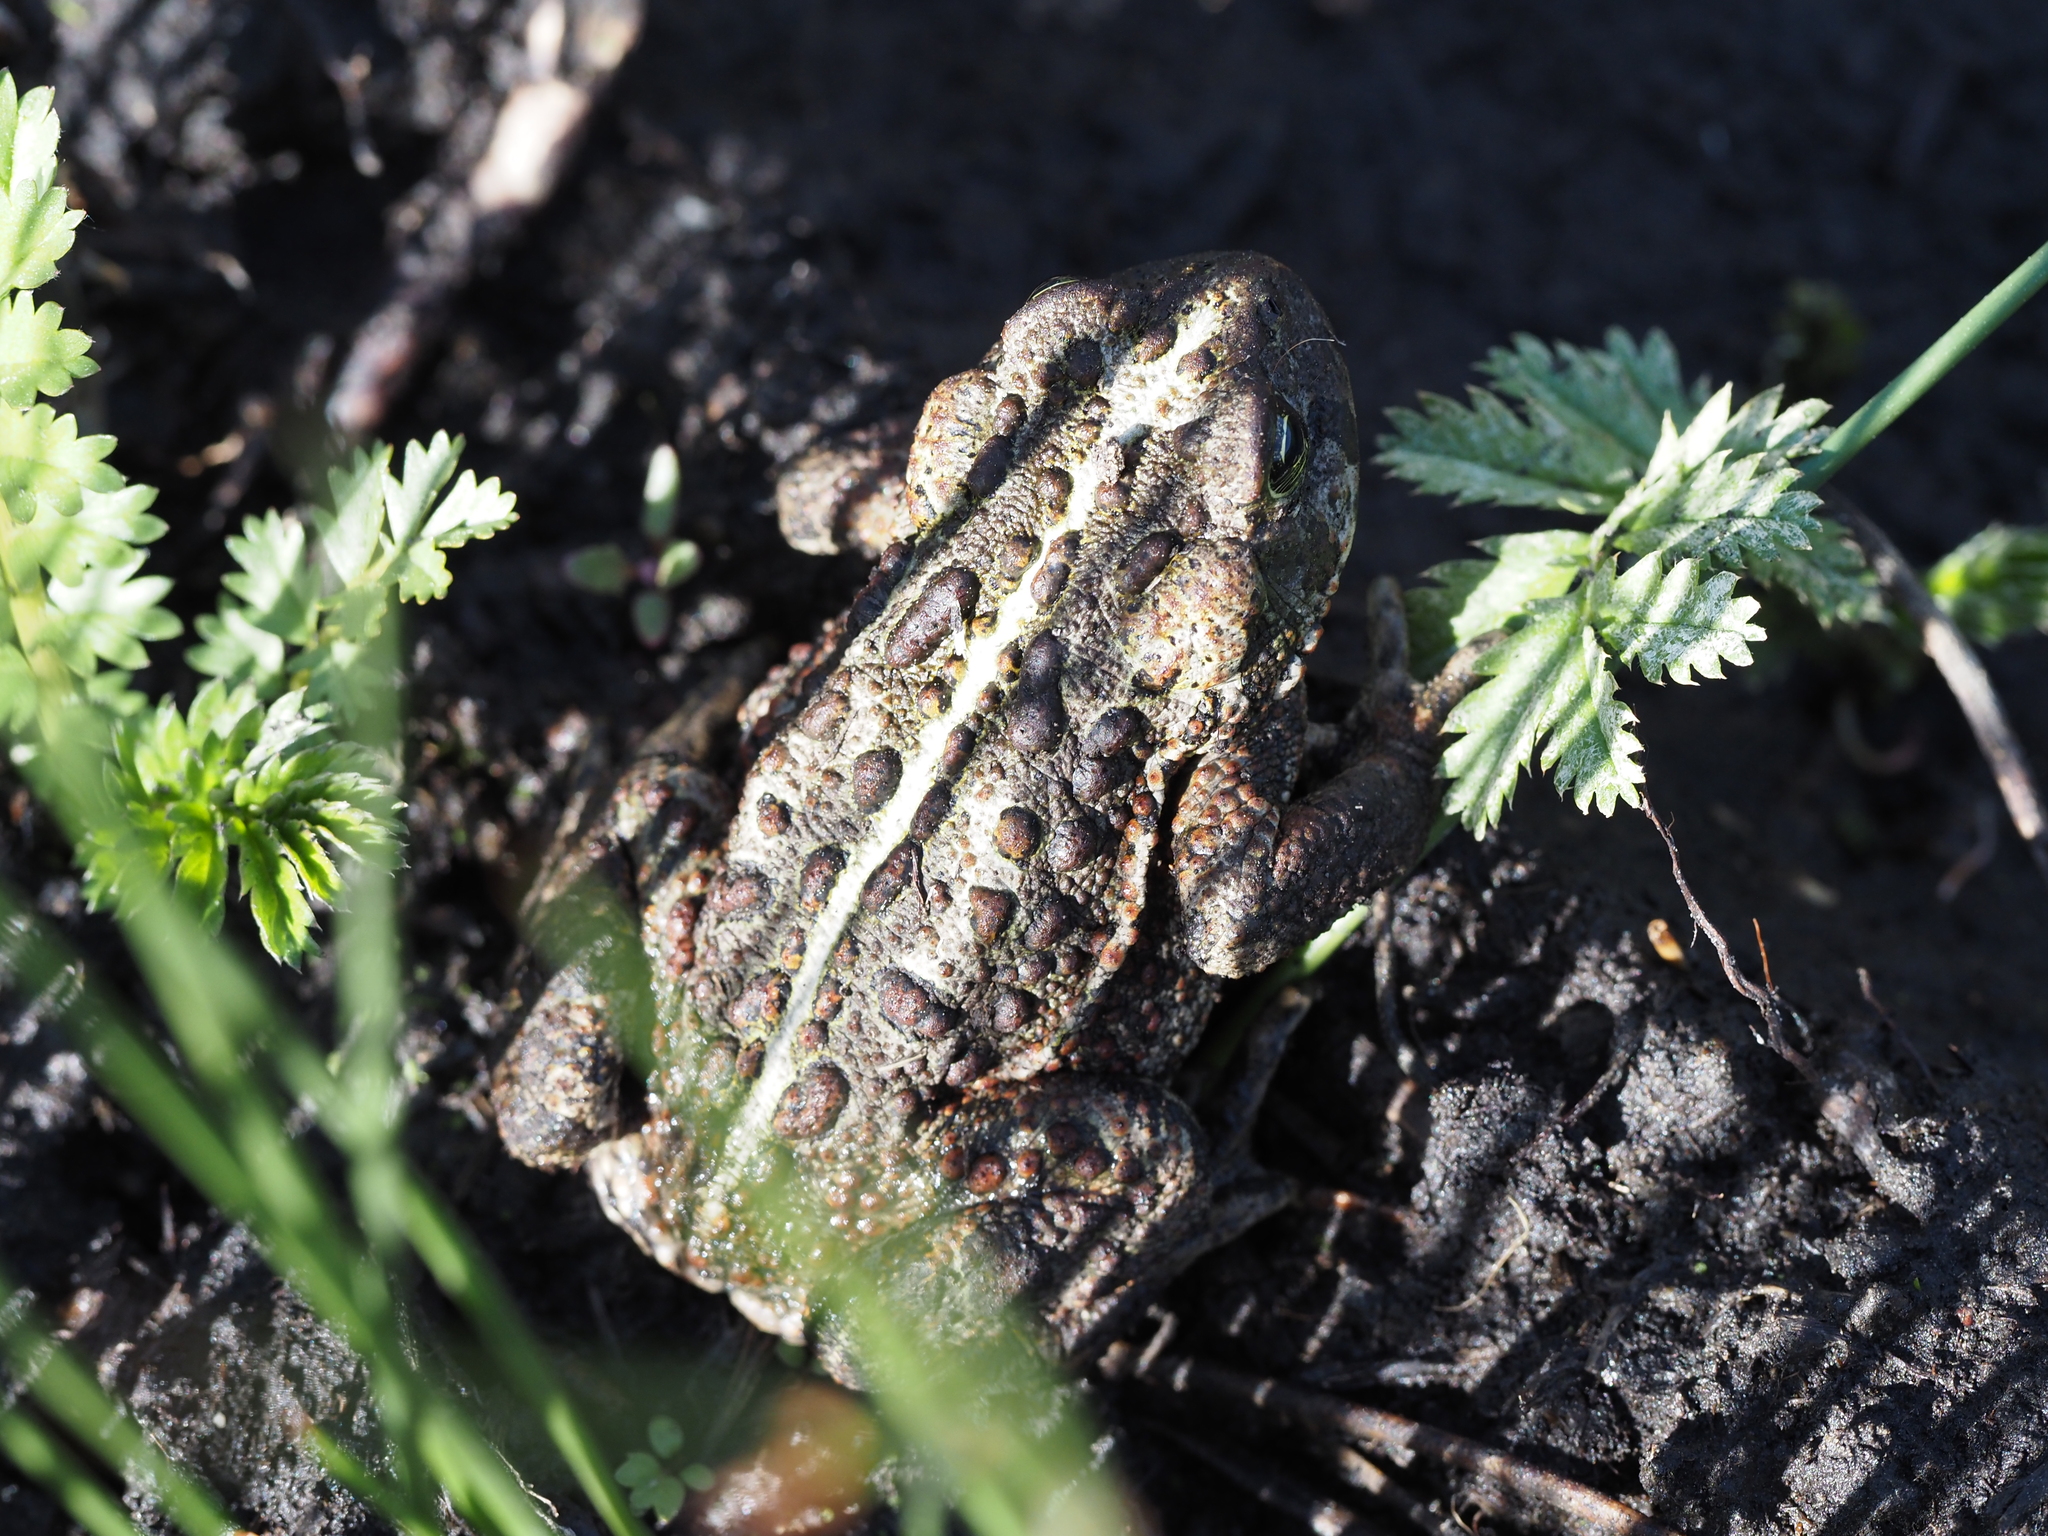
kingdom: Animalia
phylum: Chordata
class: Amphibia
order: Anura
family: Bufonidae
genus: Anaxyrus
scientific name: Anaxyrus boreas
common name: Western toad
